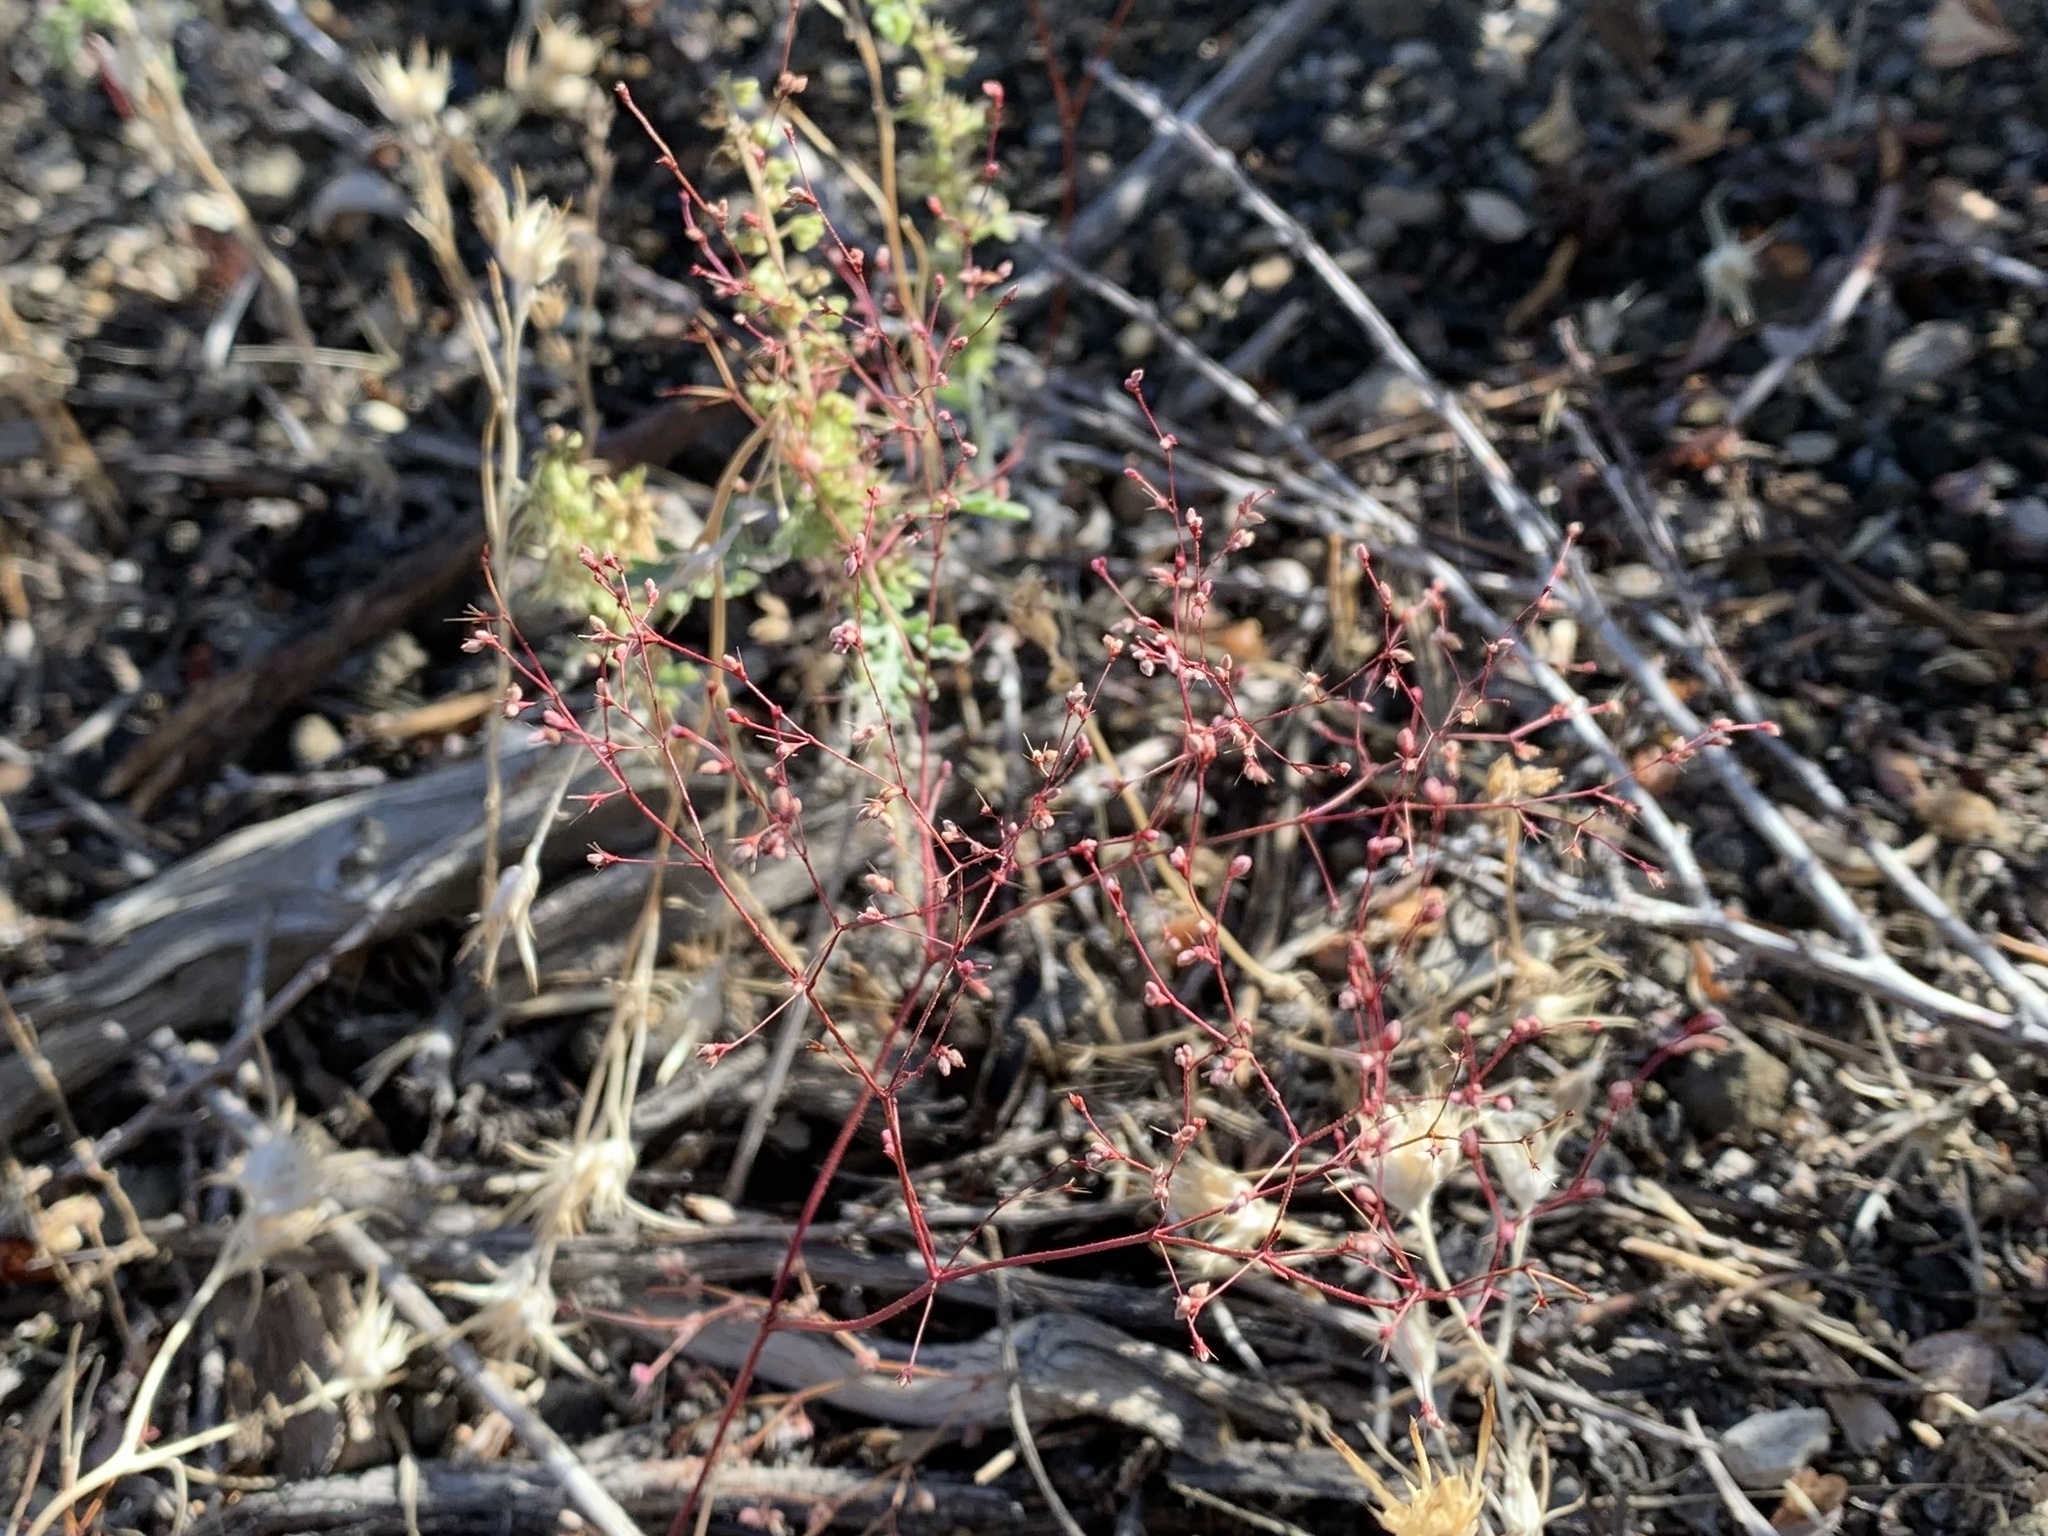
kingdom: Plantae
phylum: Tracheophyta
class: Magnoliopsida
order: Caryophyllales
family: Polygonaceae
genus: Oxytheca
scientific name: Oxytheca dendroidea
